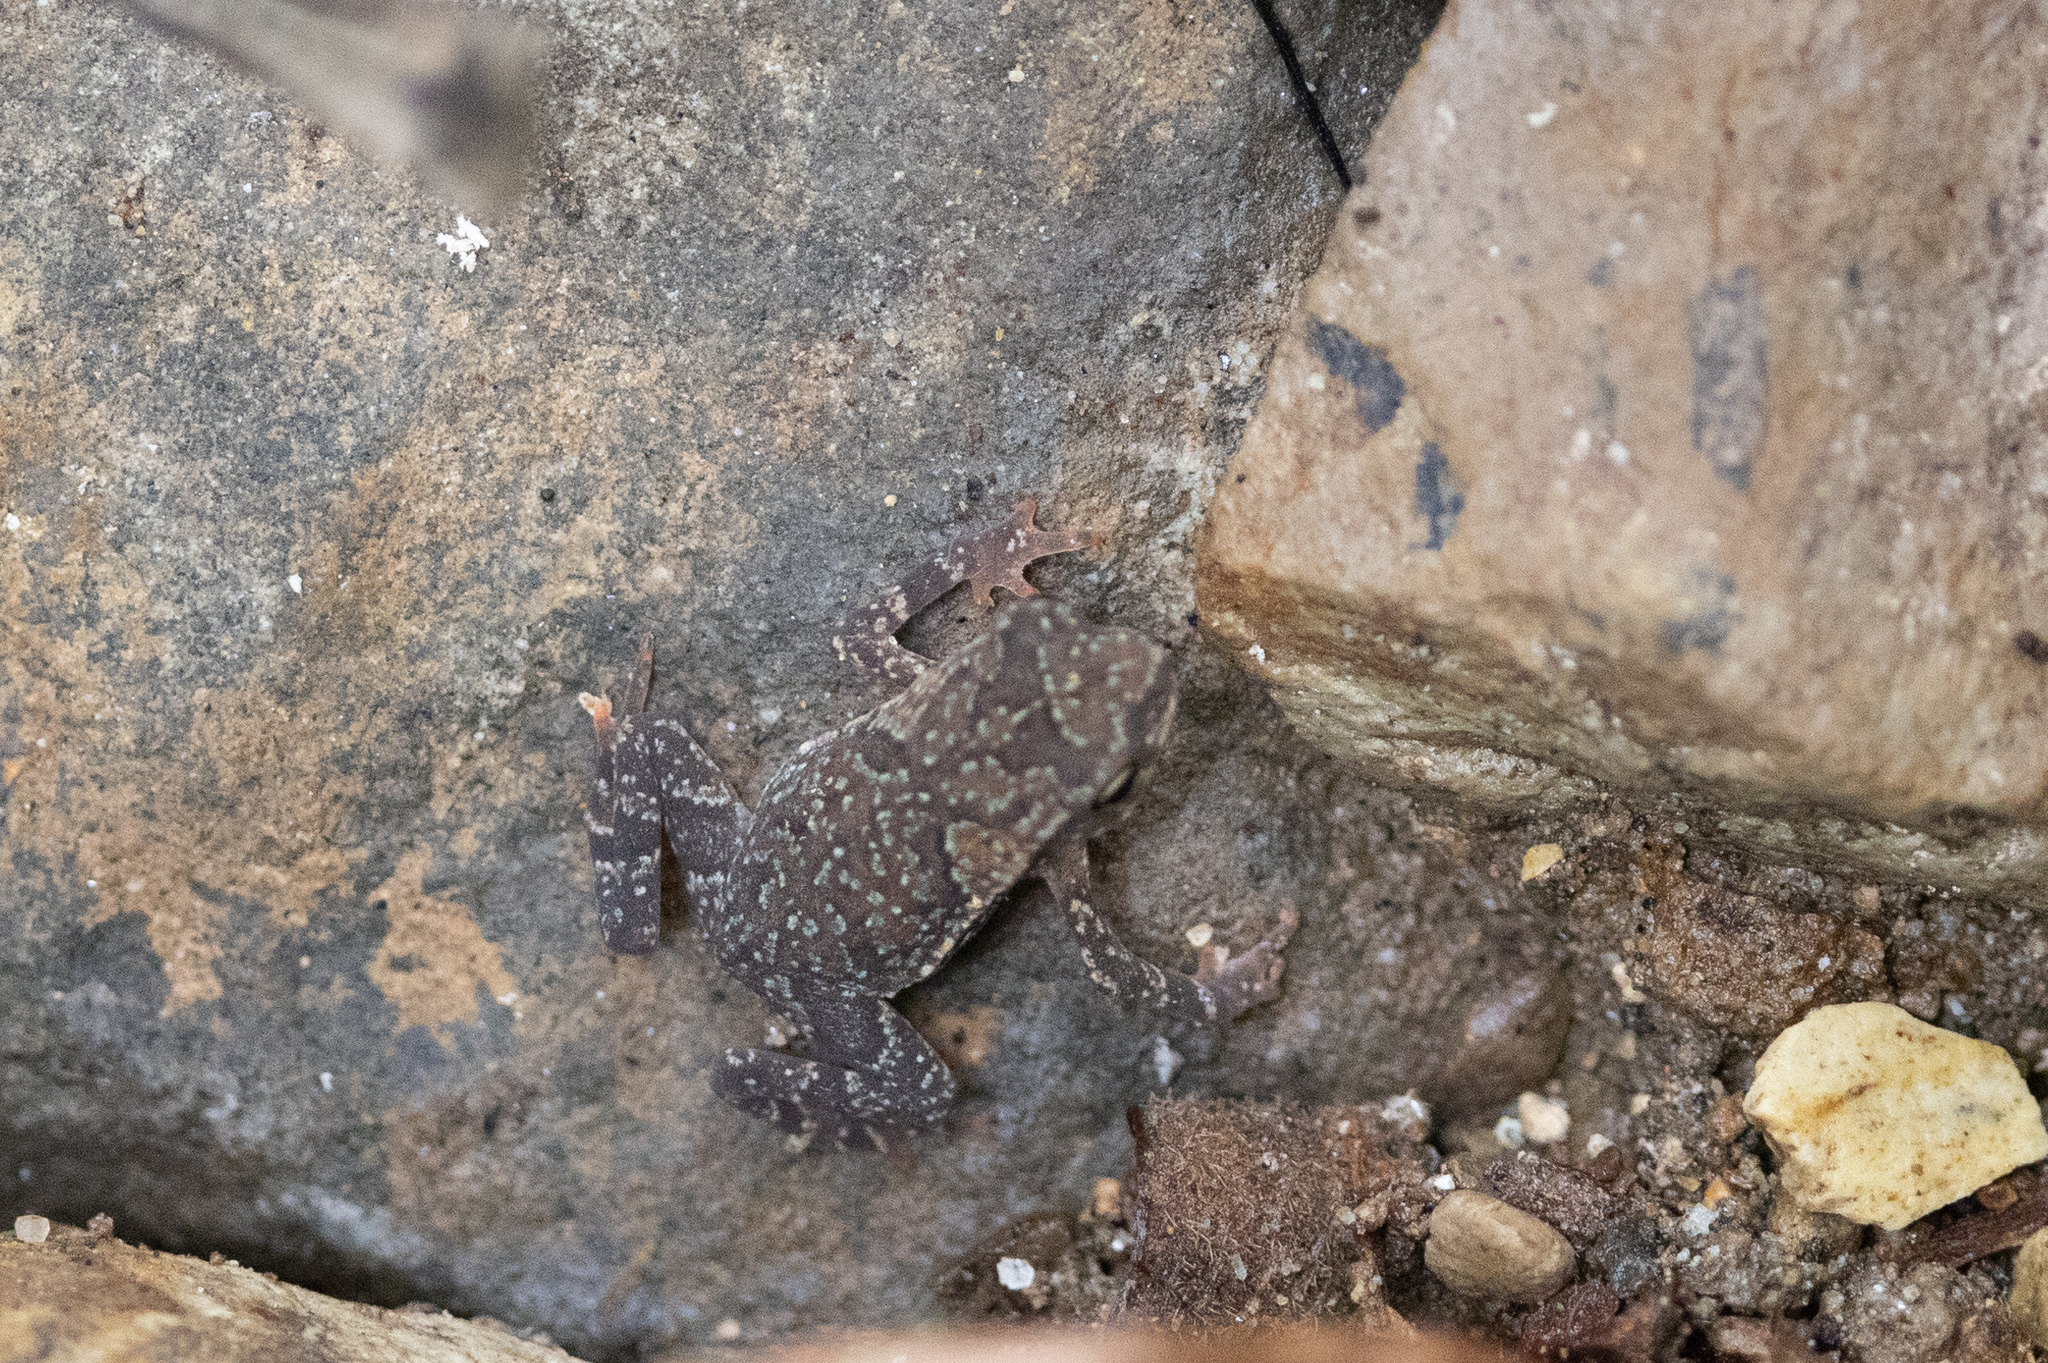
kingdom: Animalia
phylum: Chordata
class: Amphibia
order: Anura
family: Bufonidae
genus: Rhinella
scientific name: Rhinella alata
